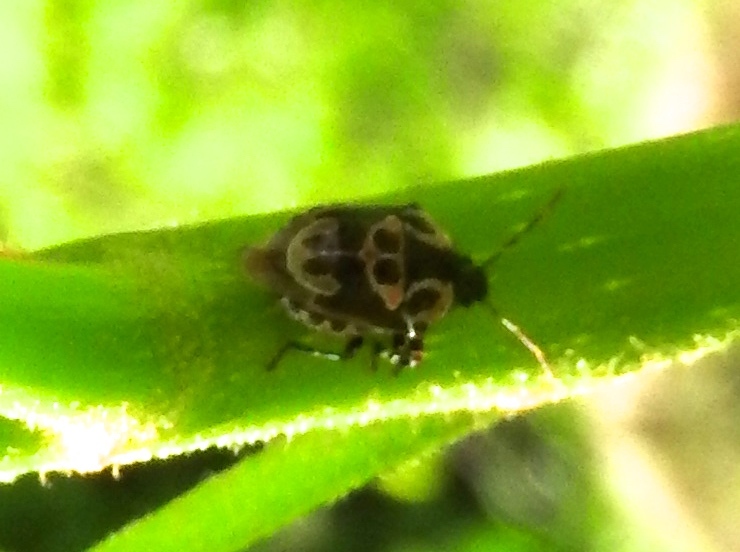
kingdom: Animalia
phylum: Arthropoda
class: Insecta
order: Hemiptera
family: Pentatomidae
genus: Stiretrus
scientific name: Stiretrus anchorago
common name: Anchor stink bug
